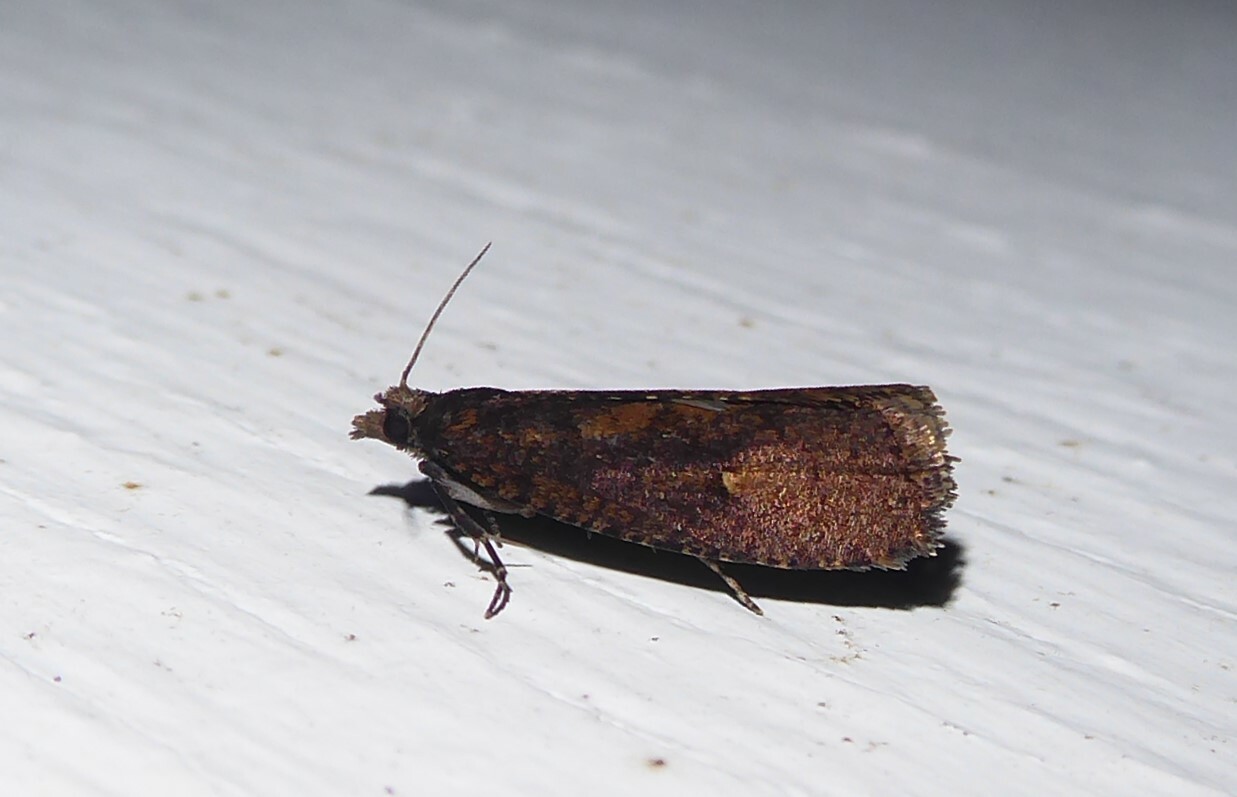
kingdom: Animalia
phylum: Arthropoda
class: Insecta
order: Lepidoptera
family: Tortricidae
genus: Cryptaspasma
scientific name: Cryptaspasma querula
